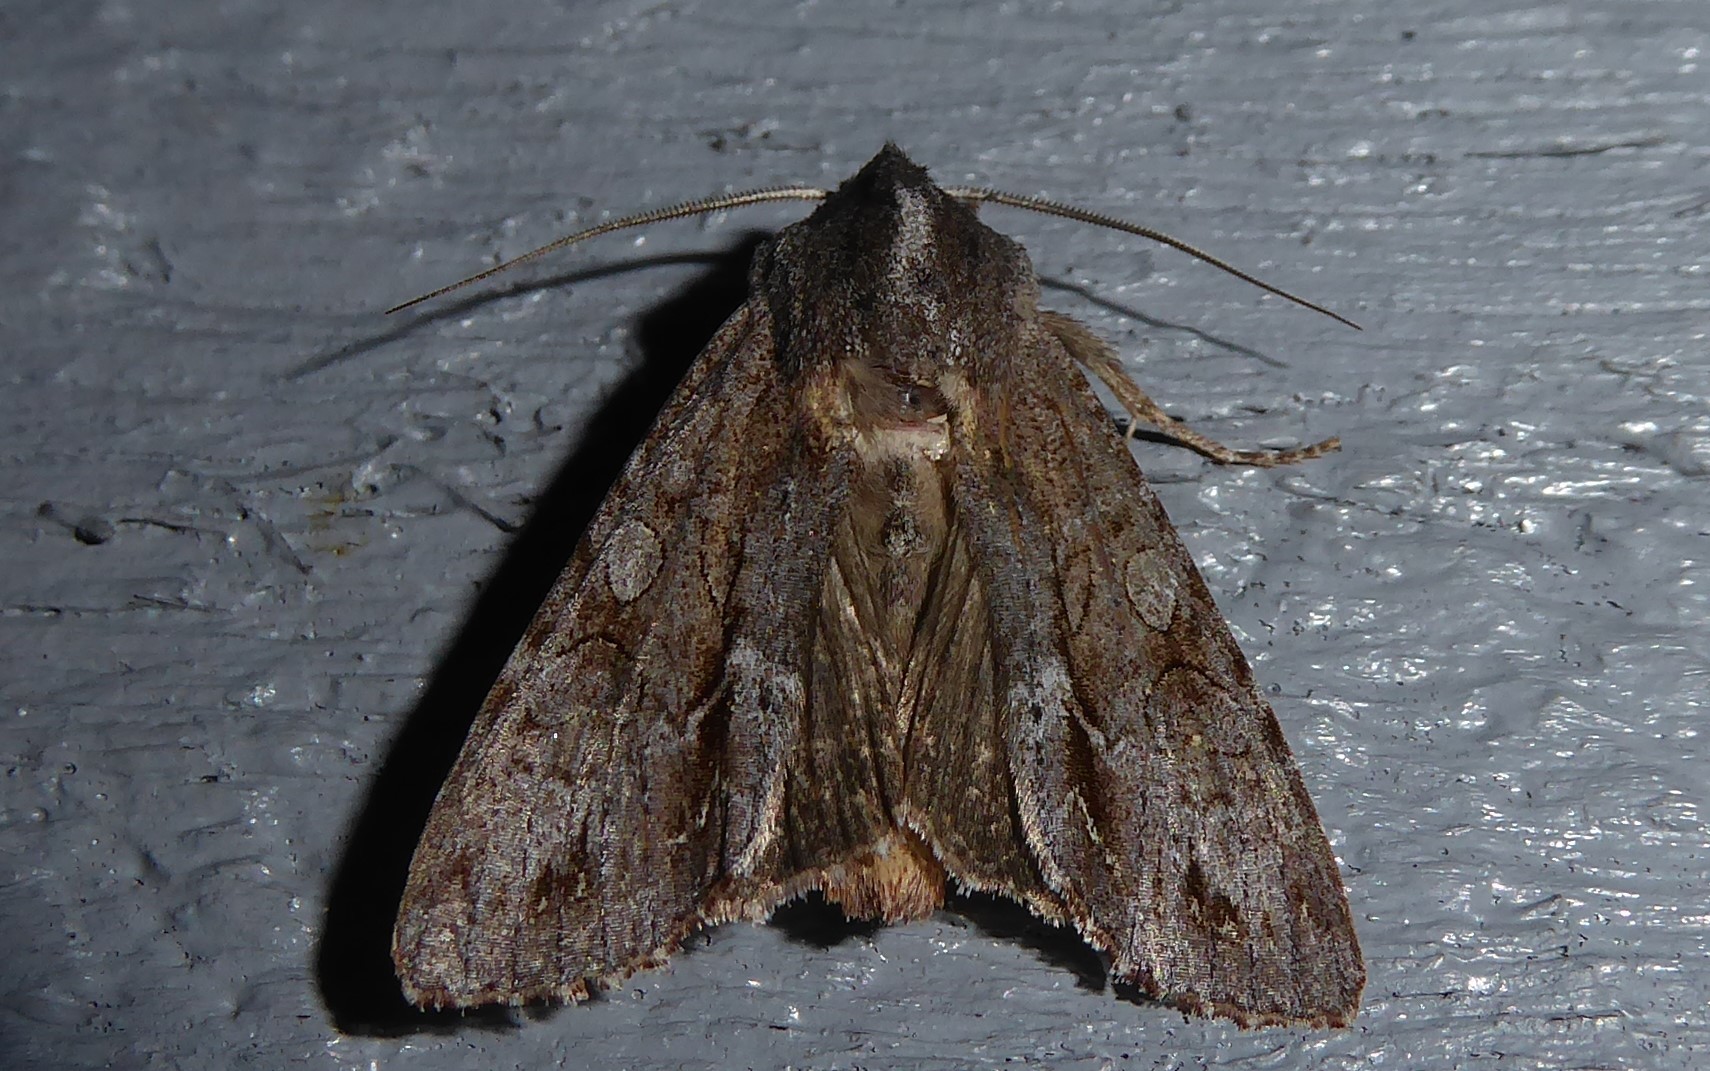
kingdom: Animalia
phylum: Arthropoda
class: Insecta
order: Lepidoptera
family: Noctuidae
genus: Ichneutica
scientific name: Ichneutica
